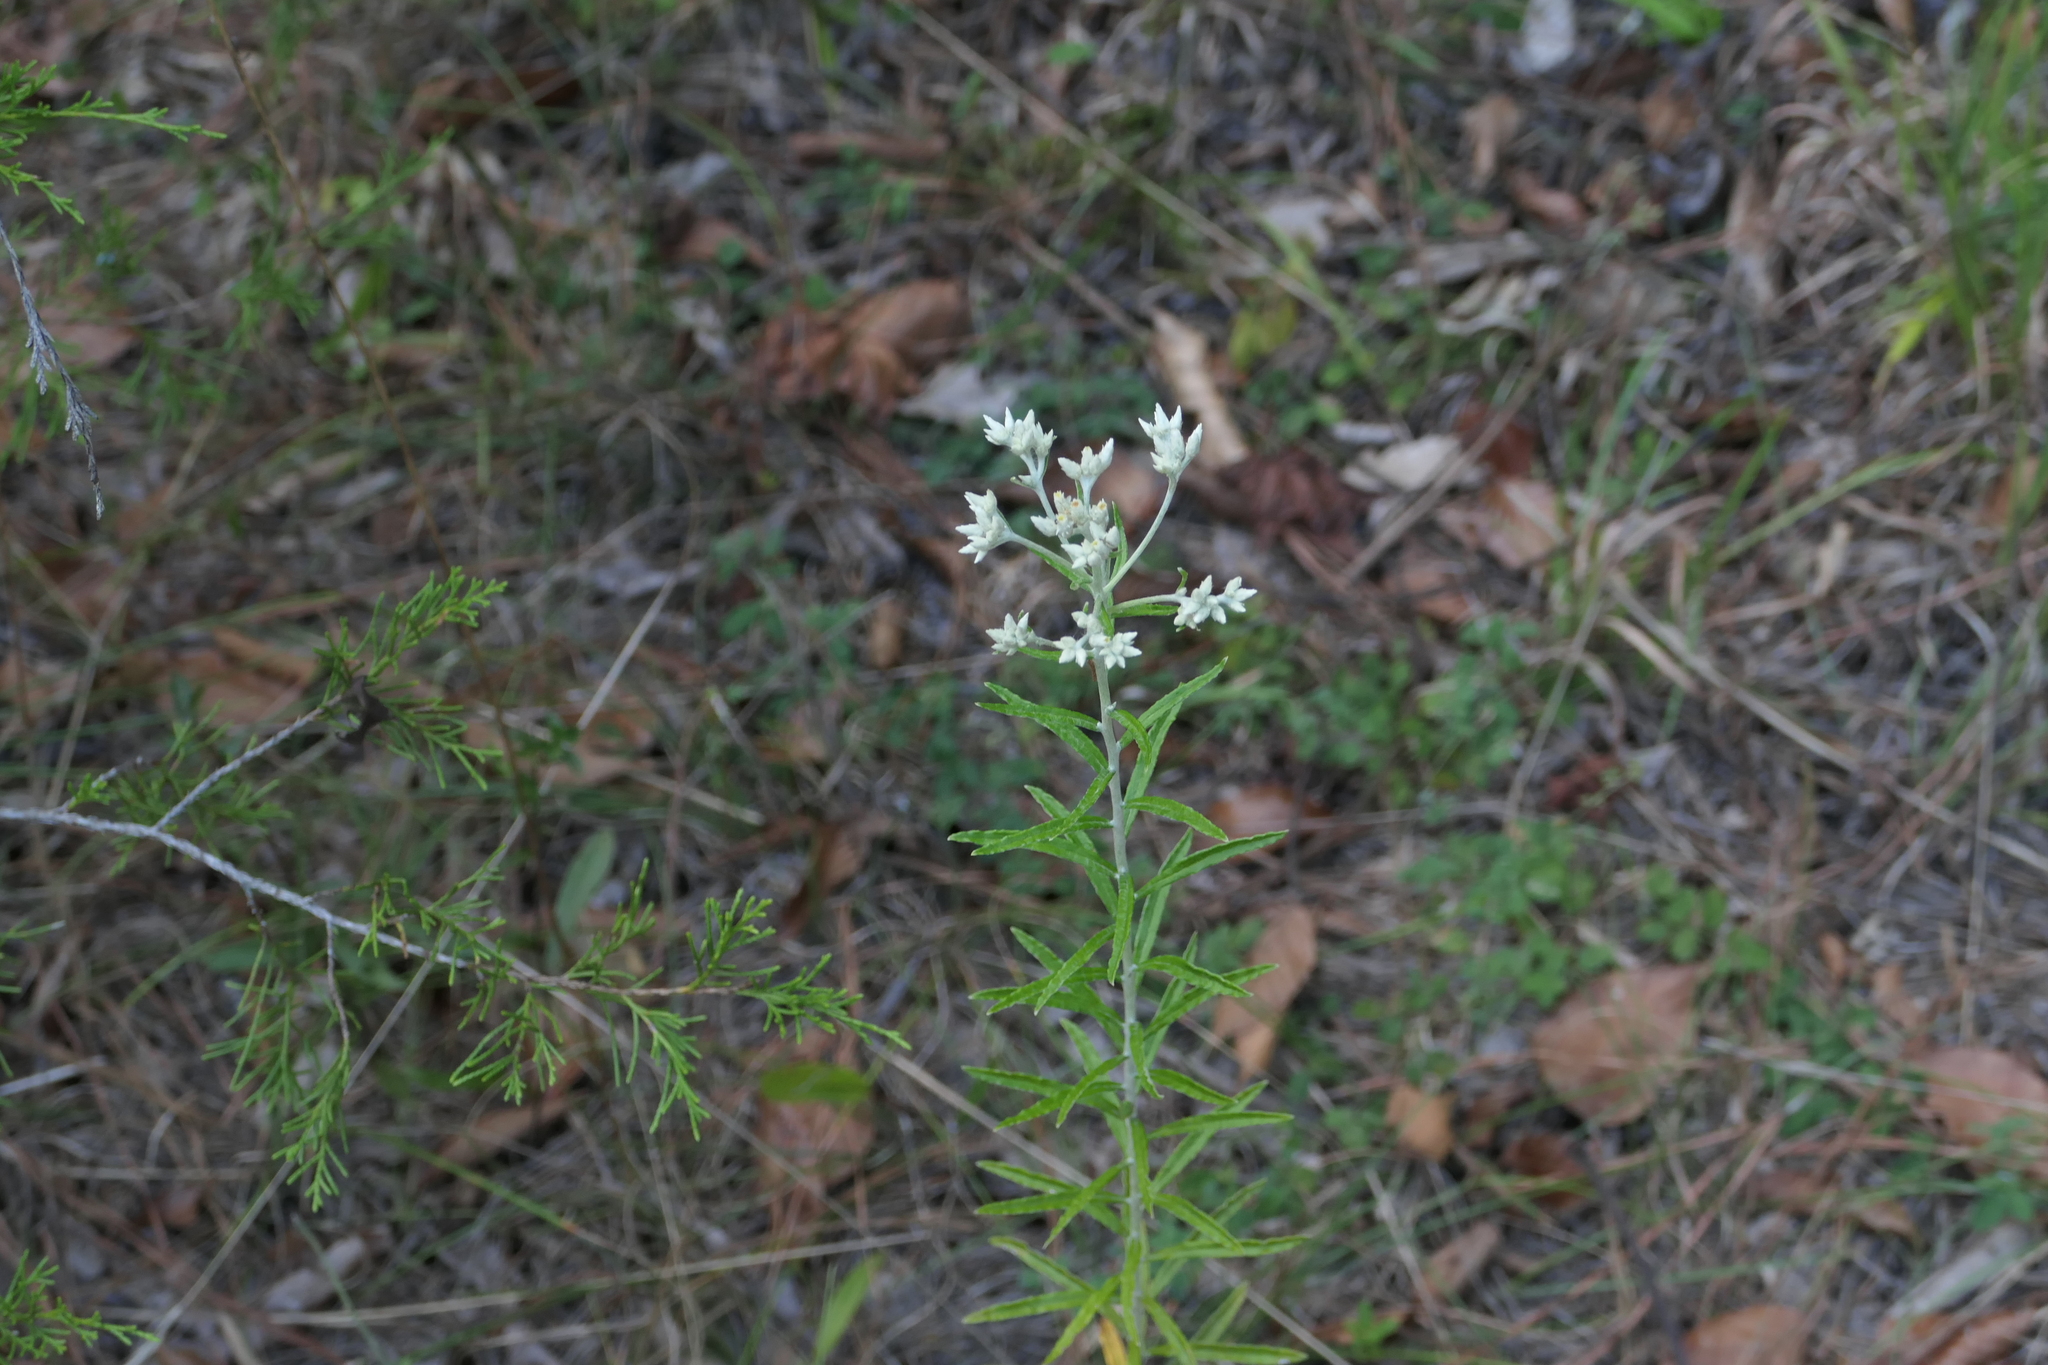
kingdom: Plantae
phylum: Tracheophyta
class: Magnoliopsida
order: Asterales
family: Asteraceae
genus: Pseudognaphalium
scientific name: Pseudognaphalium obtusifolium
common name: Eastern rabbit-tobacco
